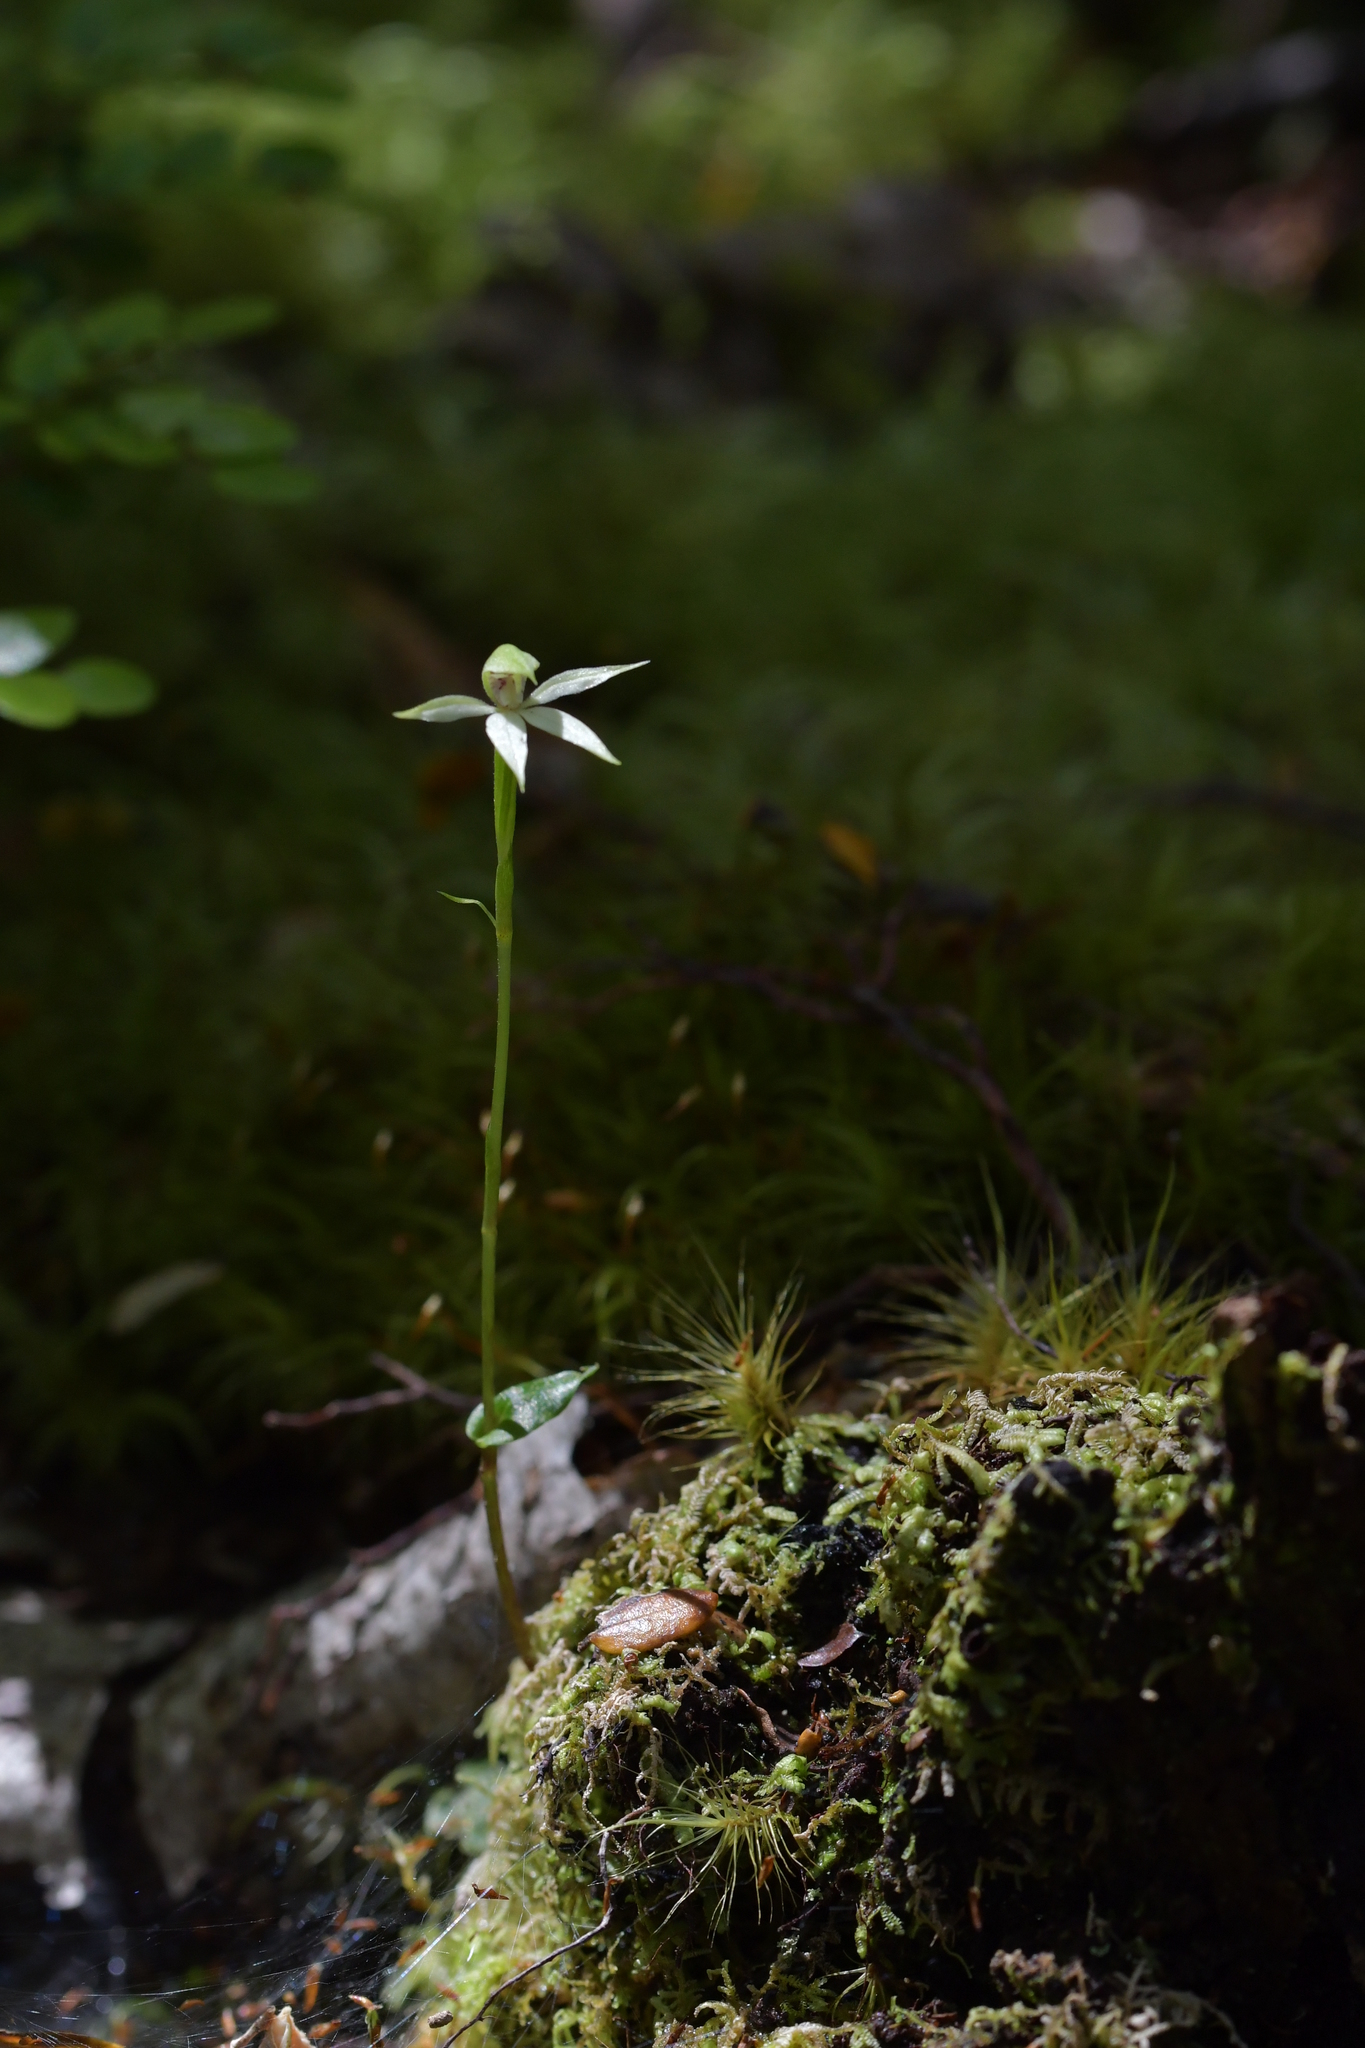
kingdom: Plantae
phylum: Tracheophyta
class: Liliopsida
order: Asparagales
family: Orchidaceae
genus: Adenochilus
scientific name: Adenochilus gracilis
